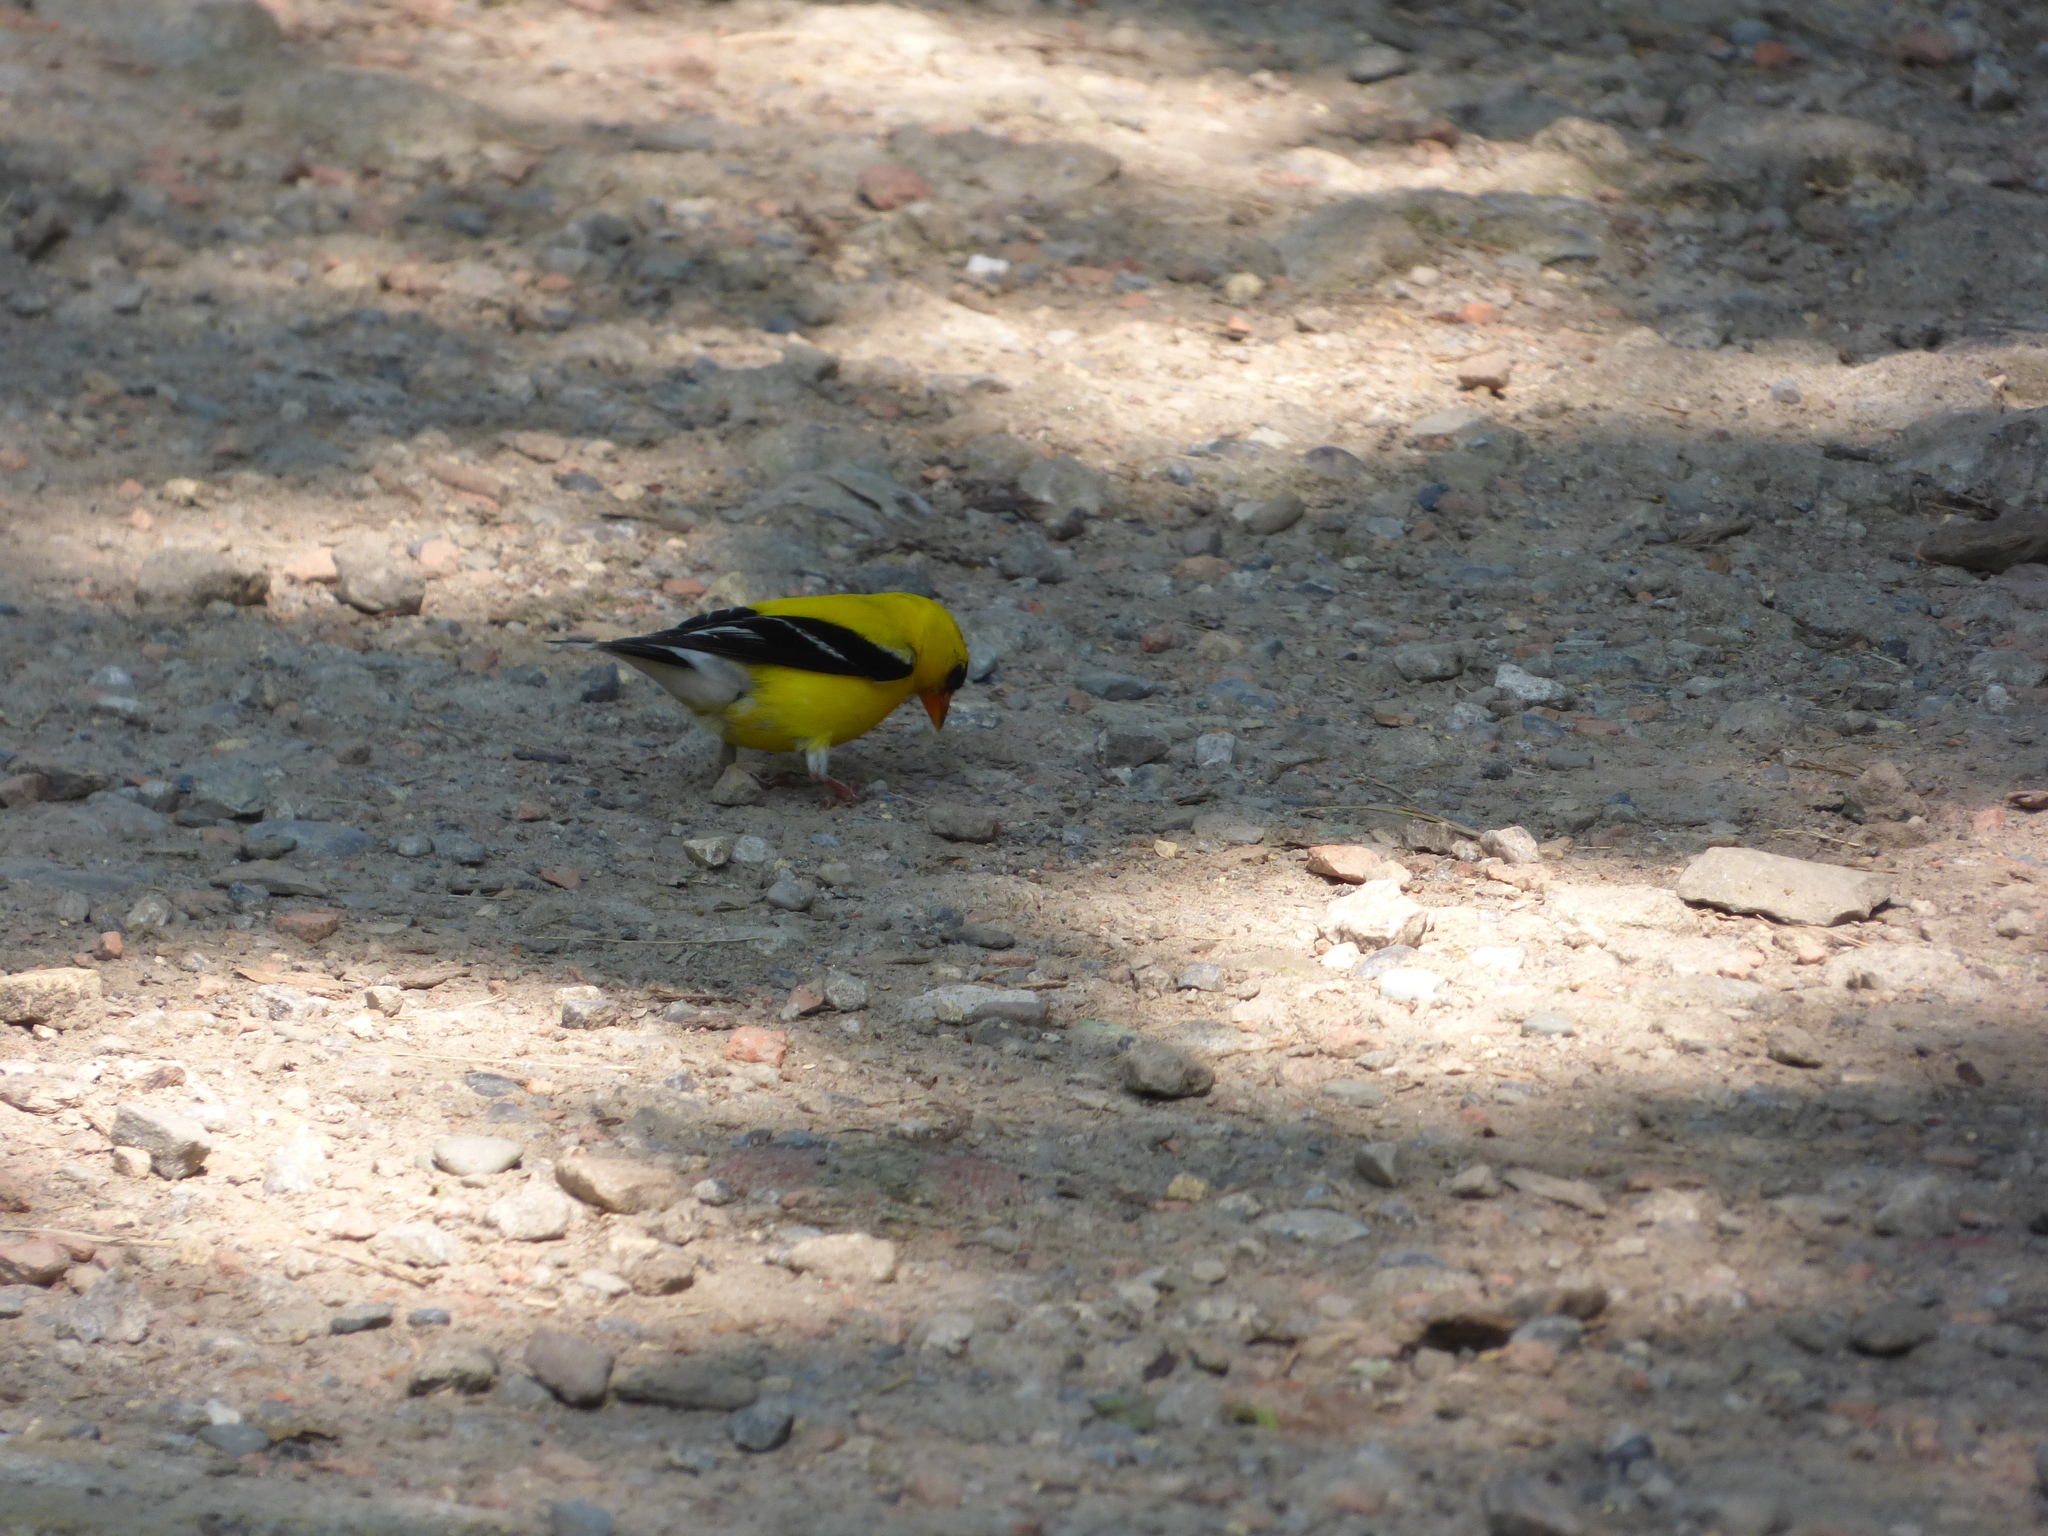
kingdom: Animalia
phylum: Chordata
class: Aves
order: Passeriformes
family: Fringillidae
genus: Spinus
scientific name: Spinus tristis
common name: American goldfinch
